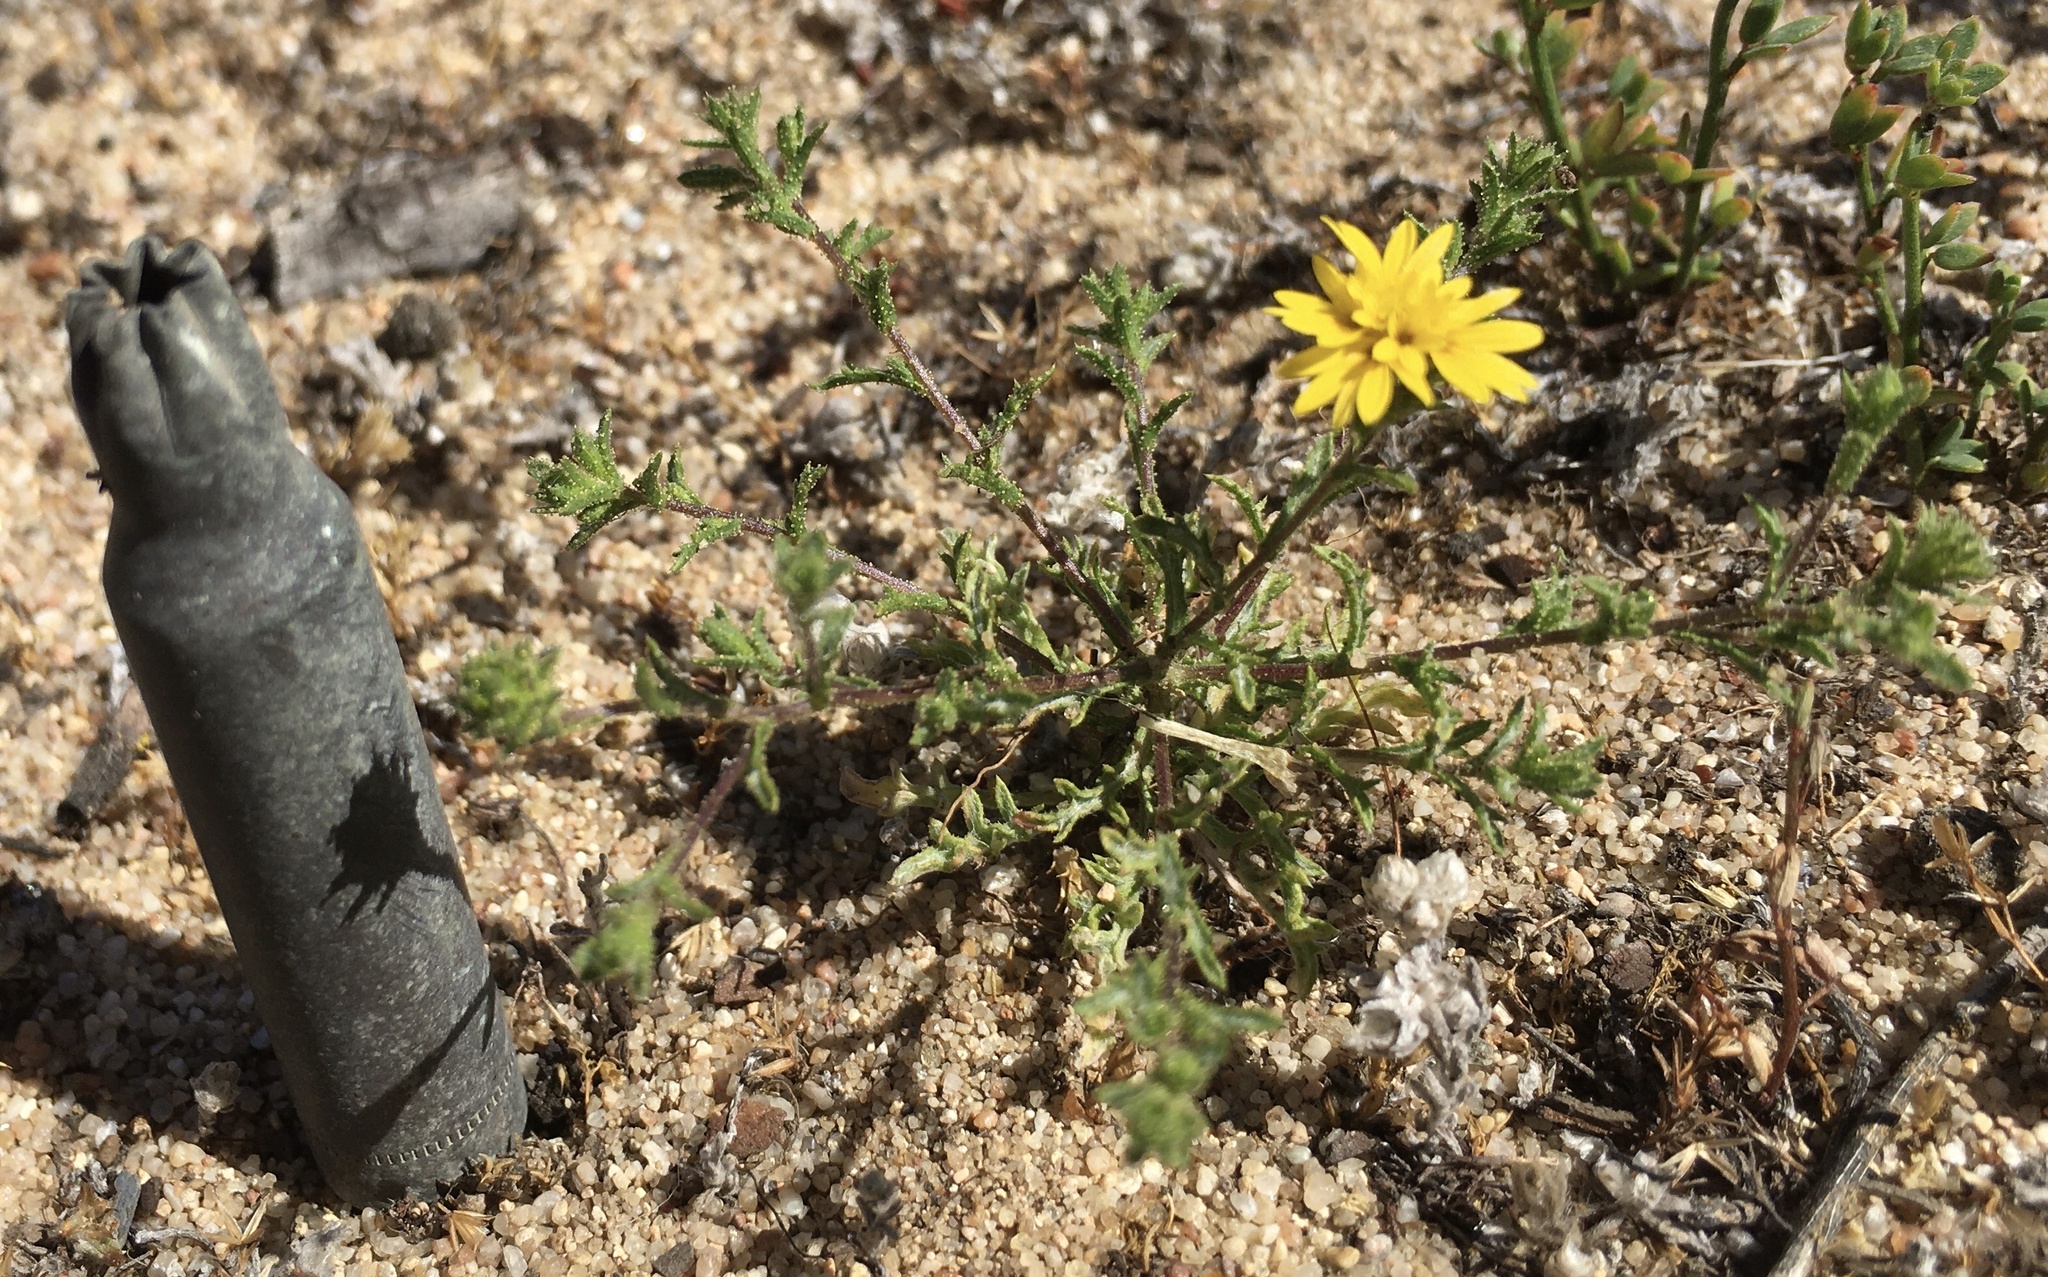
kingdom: Plantae
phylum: Tracheophyta
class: Magnoliopsida
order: Asterales
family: Asteraceae
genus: Lessingia
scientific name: Lessingia pectinata
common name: Valley lessingia
